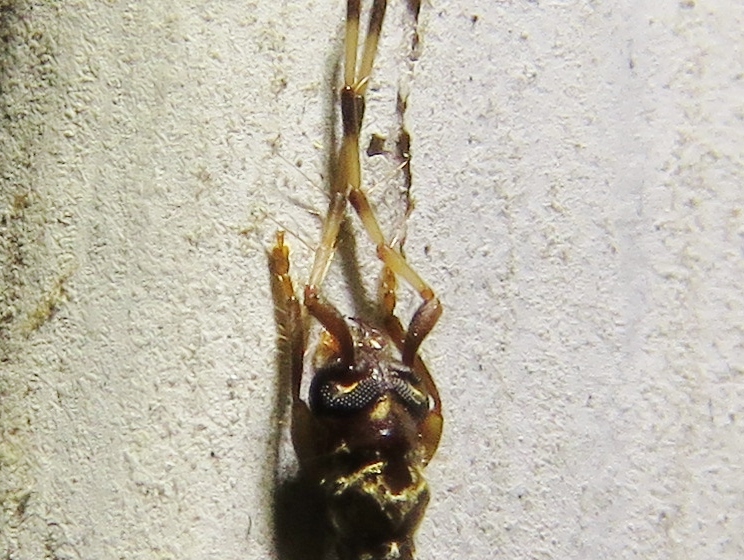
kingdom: Animalia
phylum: Arthropoda
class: Insecta
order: Coleoptera
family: Cerambycidae
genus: Stenhomalus
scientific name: Stenhomalus taiwanus
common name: Taiwan slender longhorned beetle
